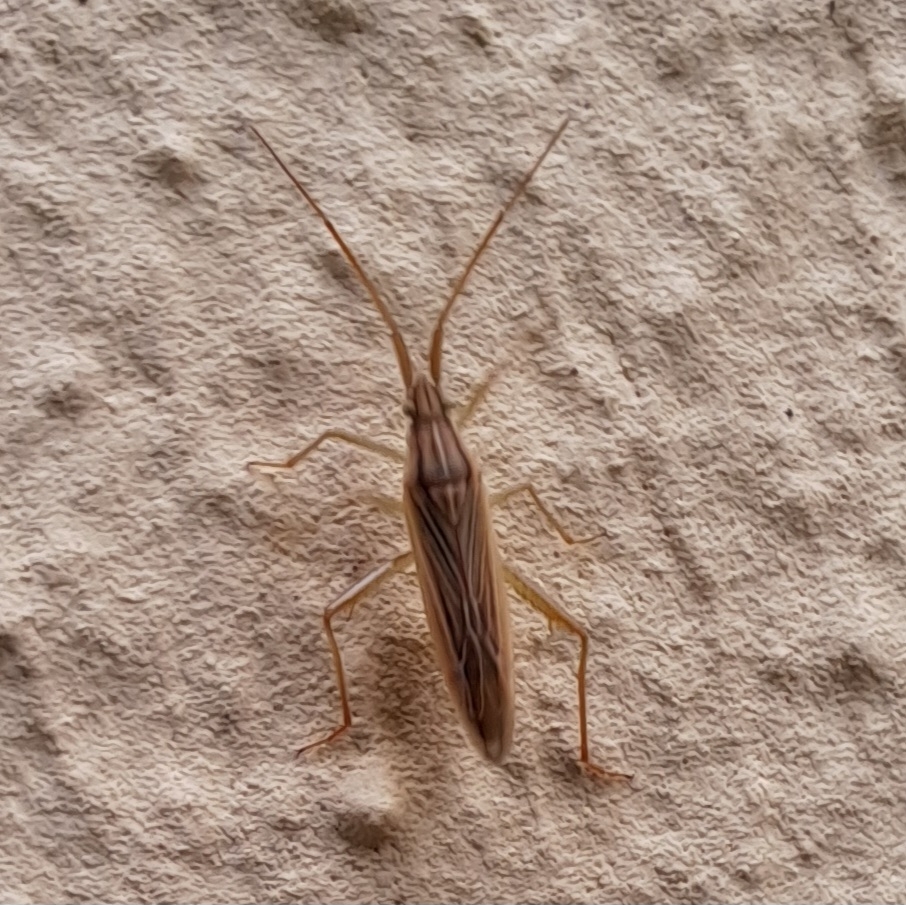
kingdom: Animalia
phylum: Arthropoda
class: Insecta
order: Hemiptera
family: Miridae
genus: Stenodema
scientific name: Stenodema calcarata
